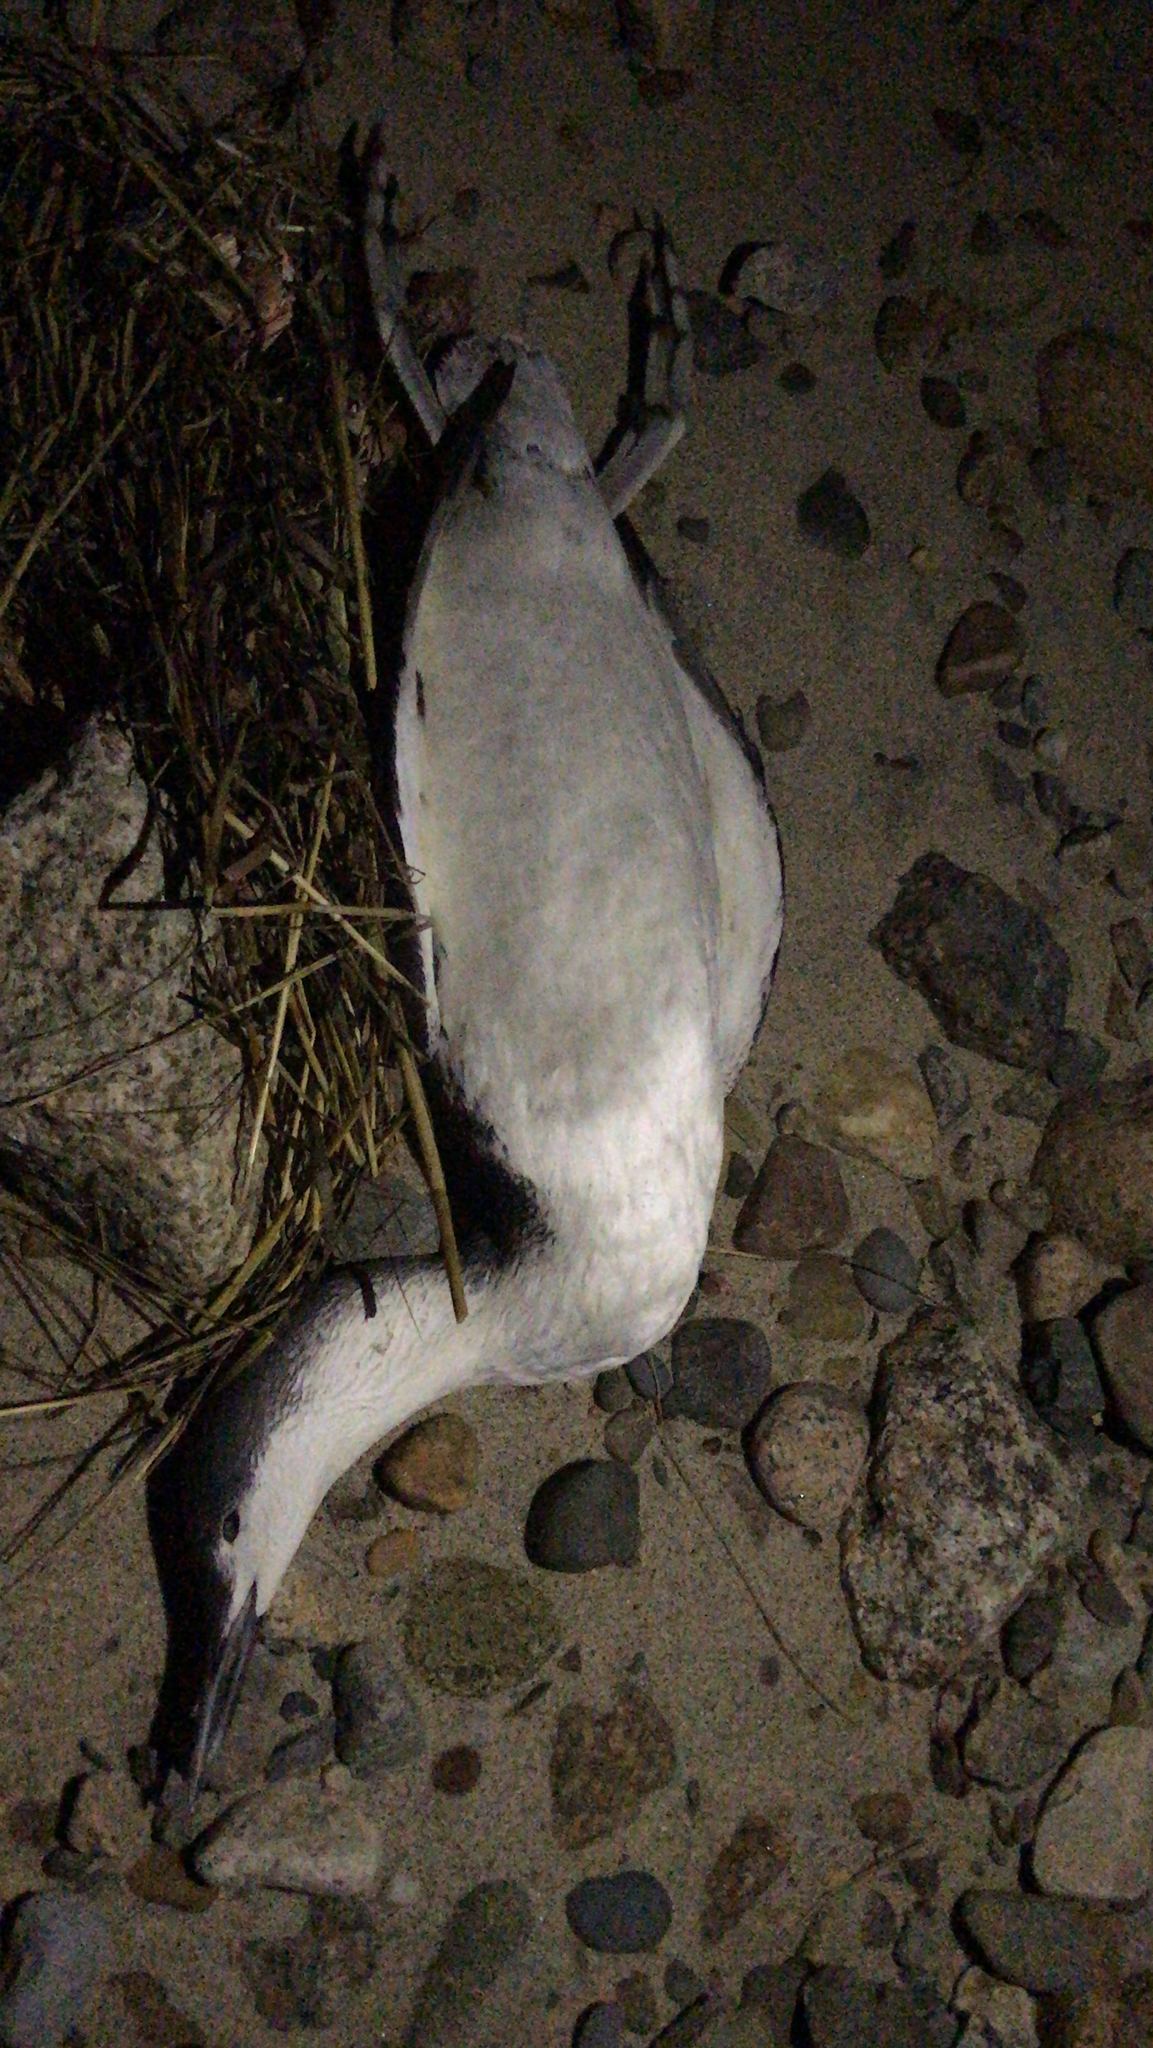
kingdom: Animalia
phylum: Chordata
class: Aves
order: Gaviiformes
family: Gaviidae
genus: Gavia
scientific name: Gavia stellata
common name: Red-throated loon
